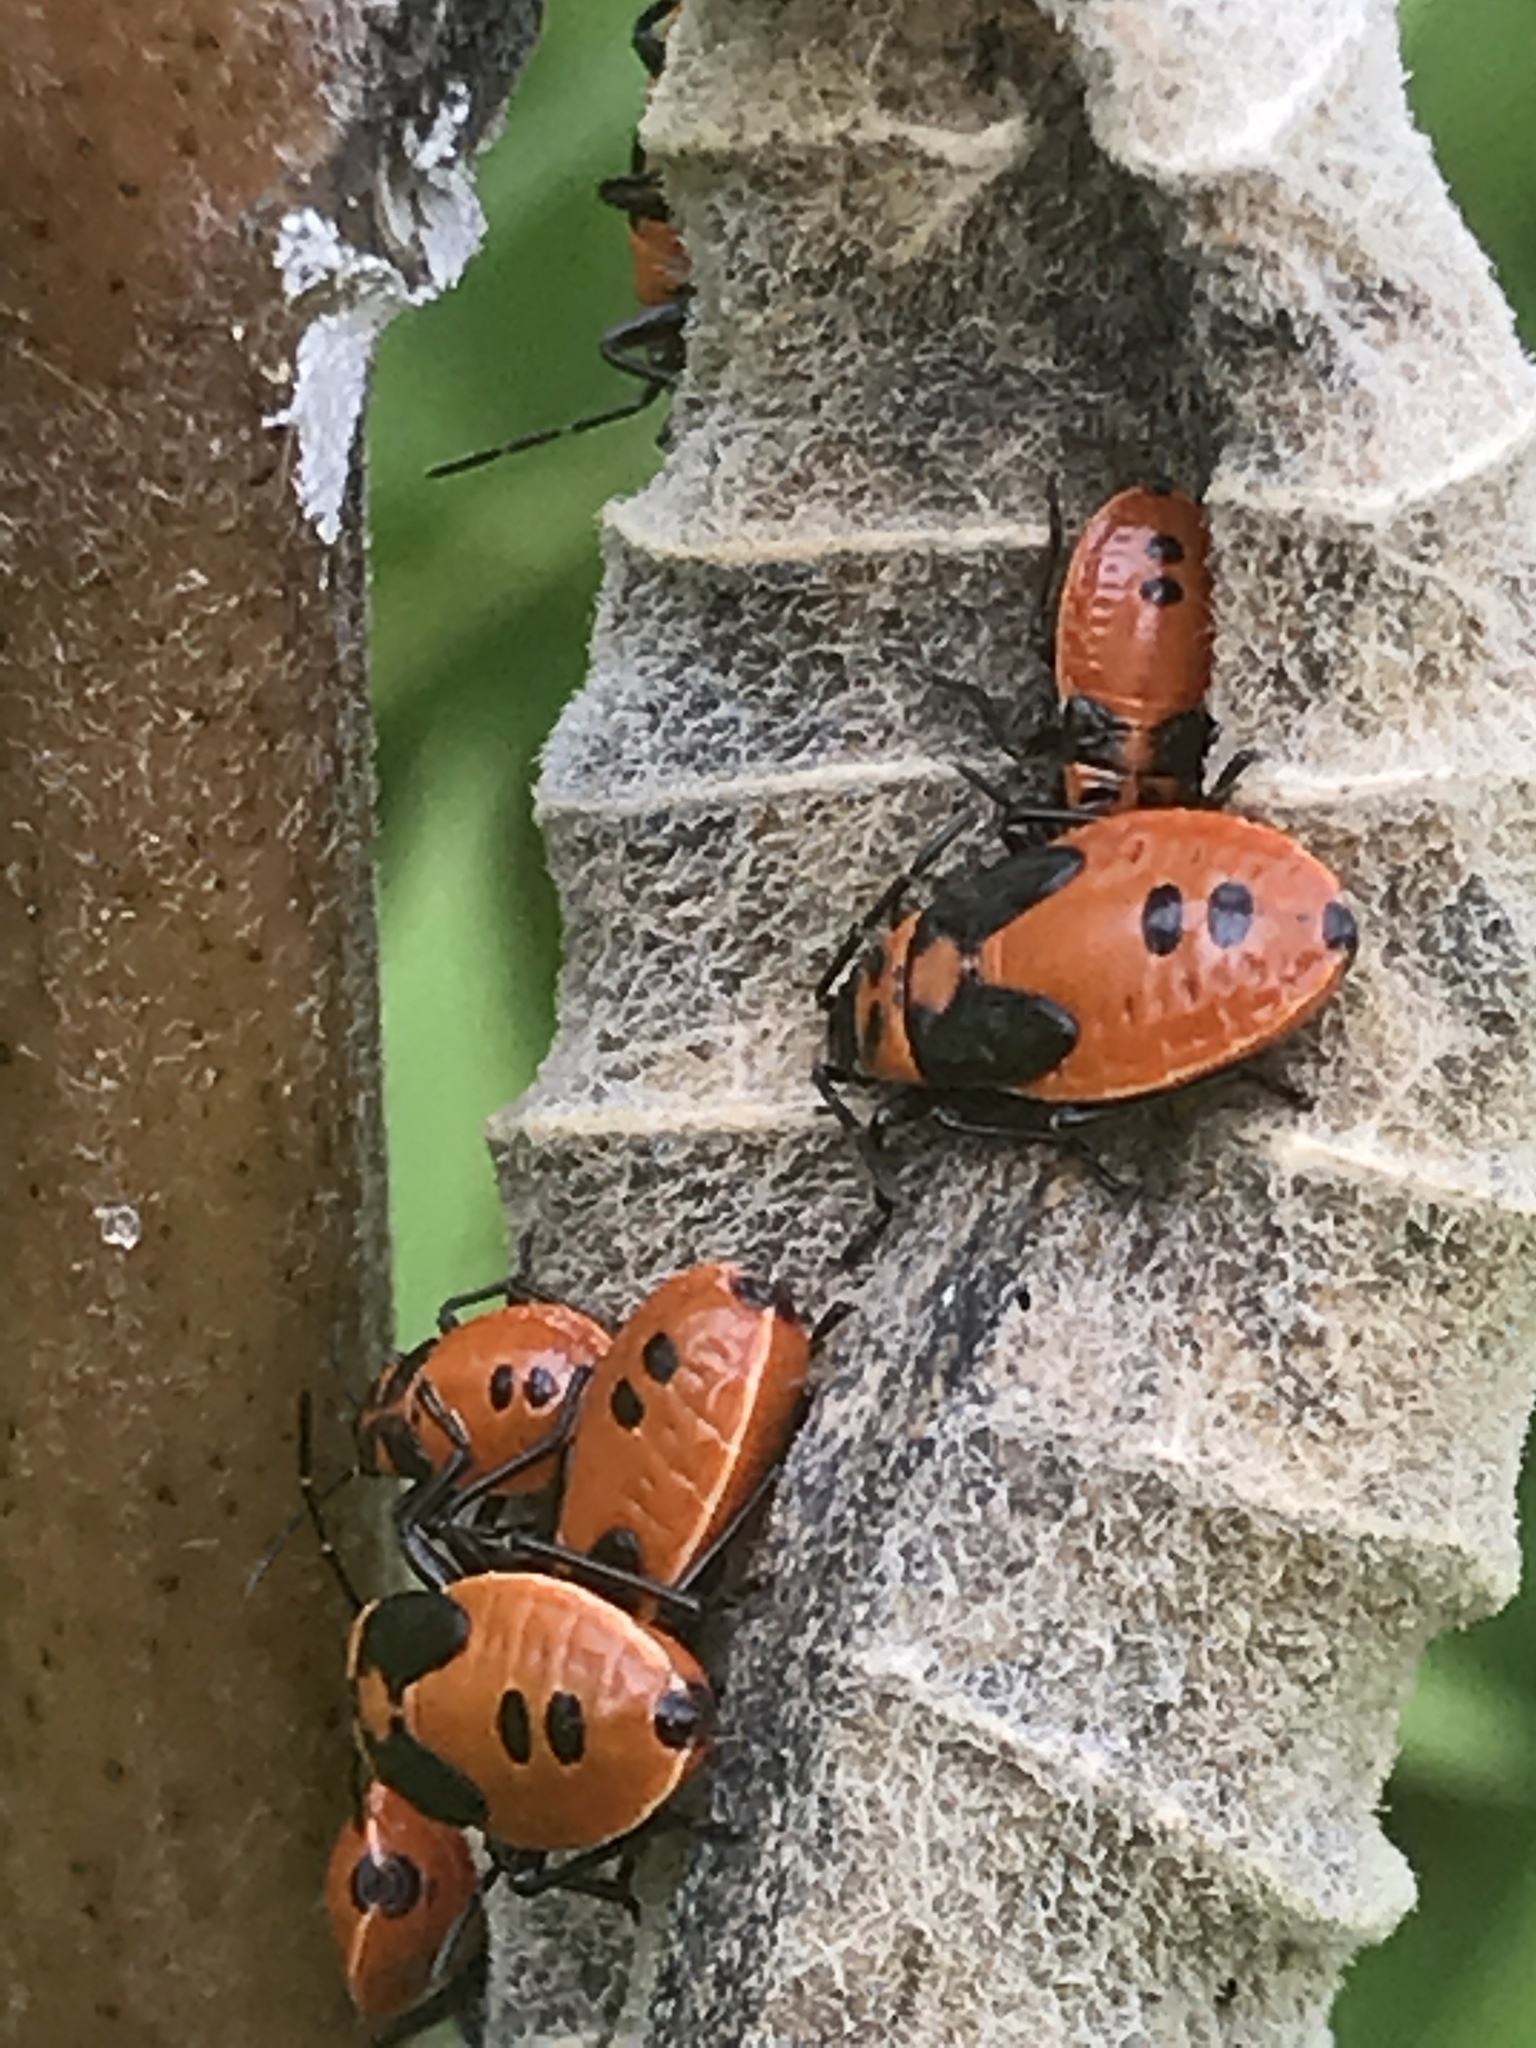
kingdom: Animalia
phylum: Arthropoda
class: Insecta
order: Hemiptera
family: Lygaeidae
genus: Lygaeus
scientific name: Lygaeus turcicus
